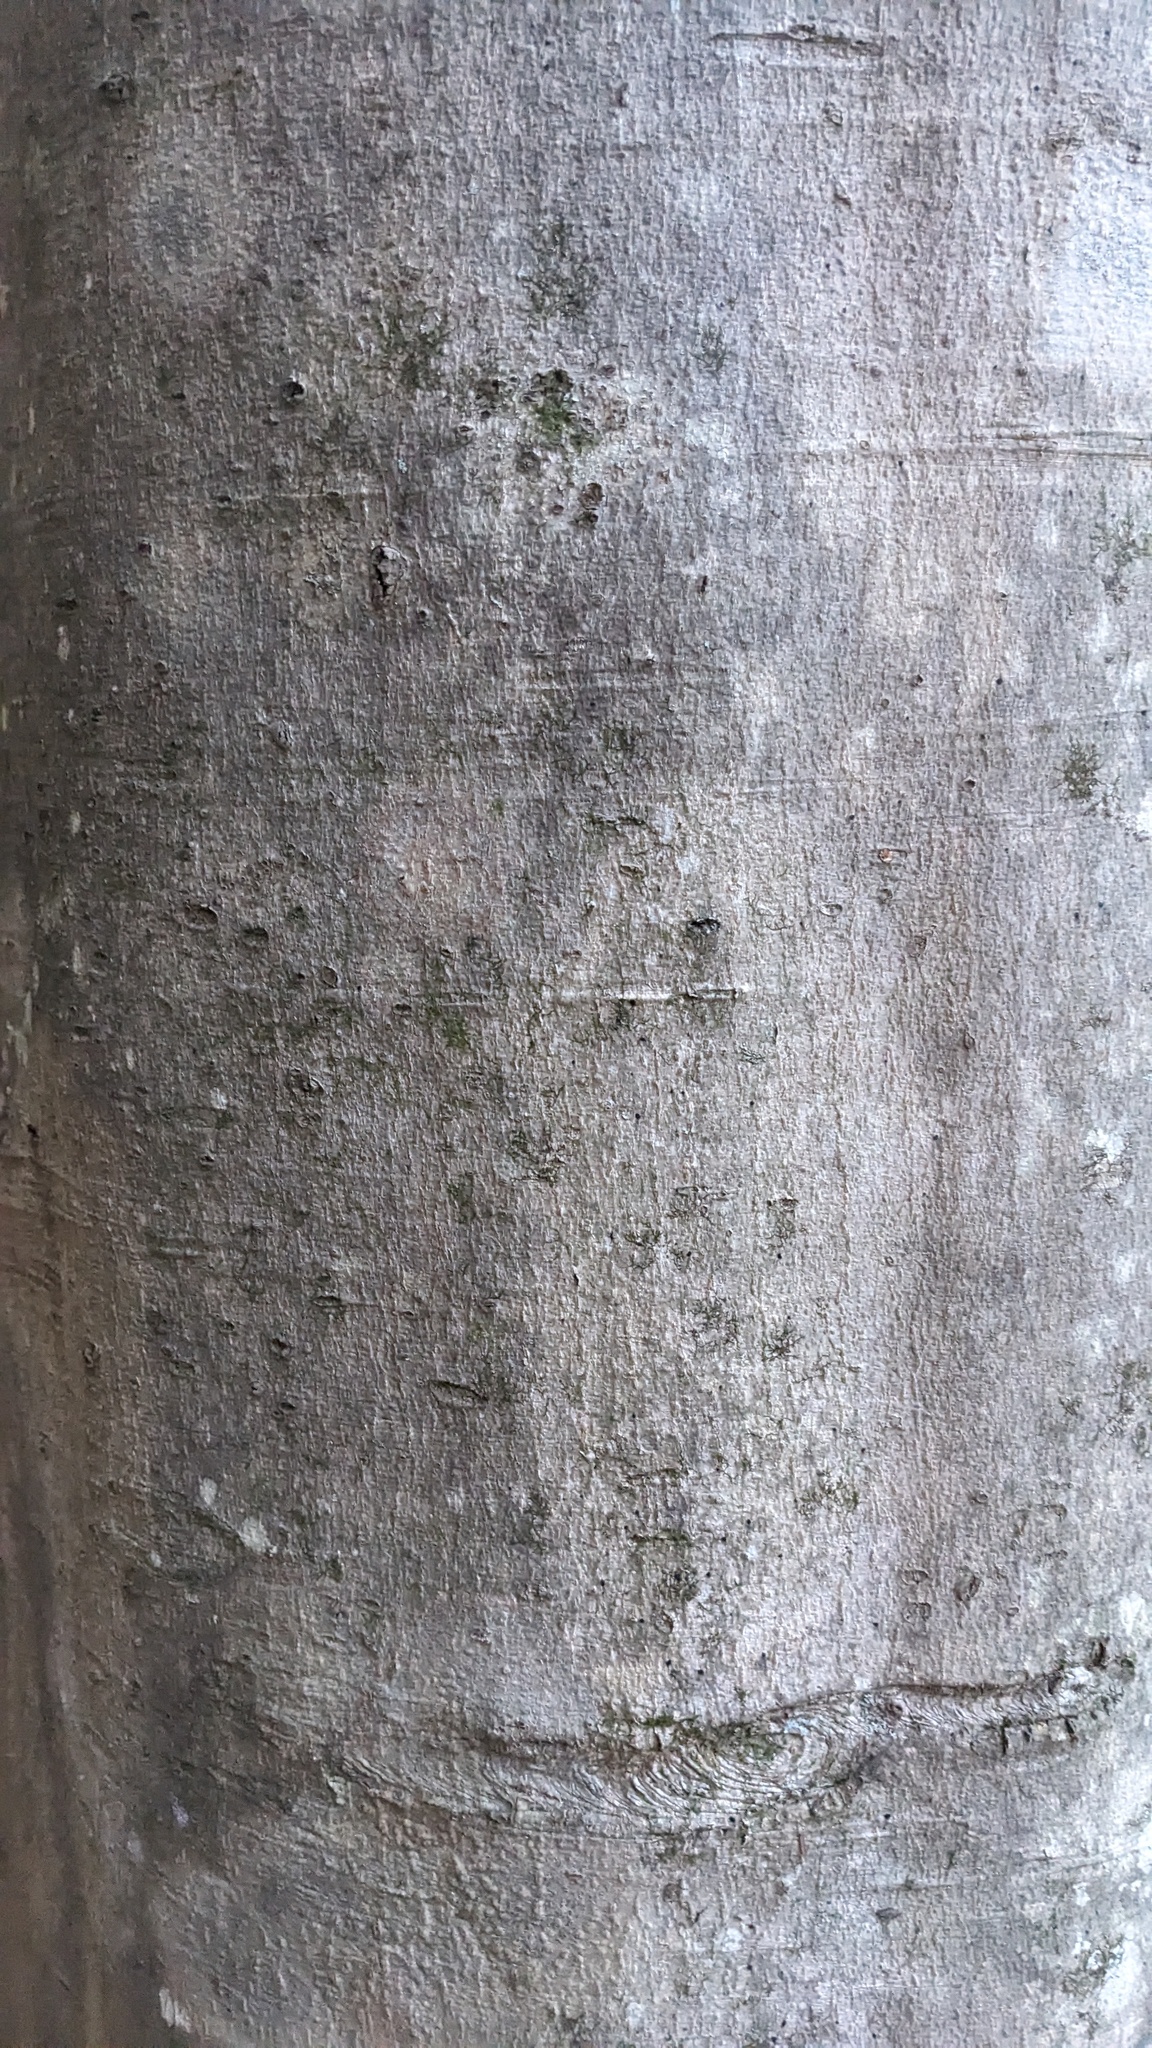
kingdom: Plantae
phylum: Tracheophyta
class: Magnoliopsida
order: Fagales
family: Fagaceae
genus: Fagus
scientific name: Fagus grandifolia
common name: American beech
